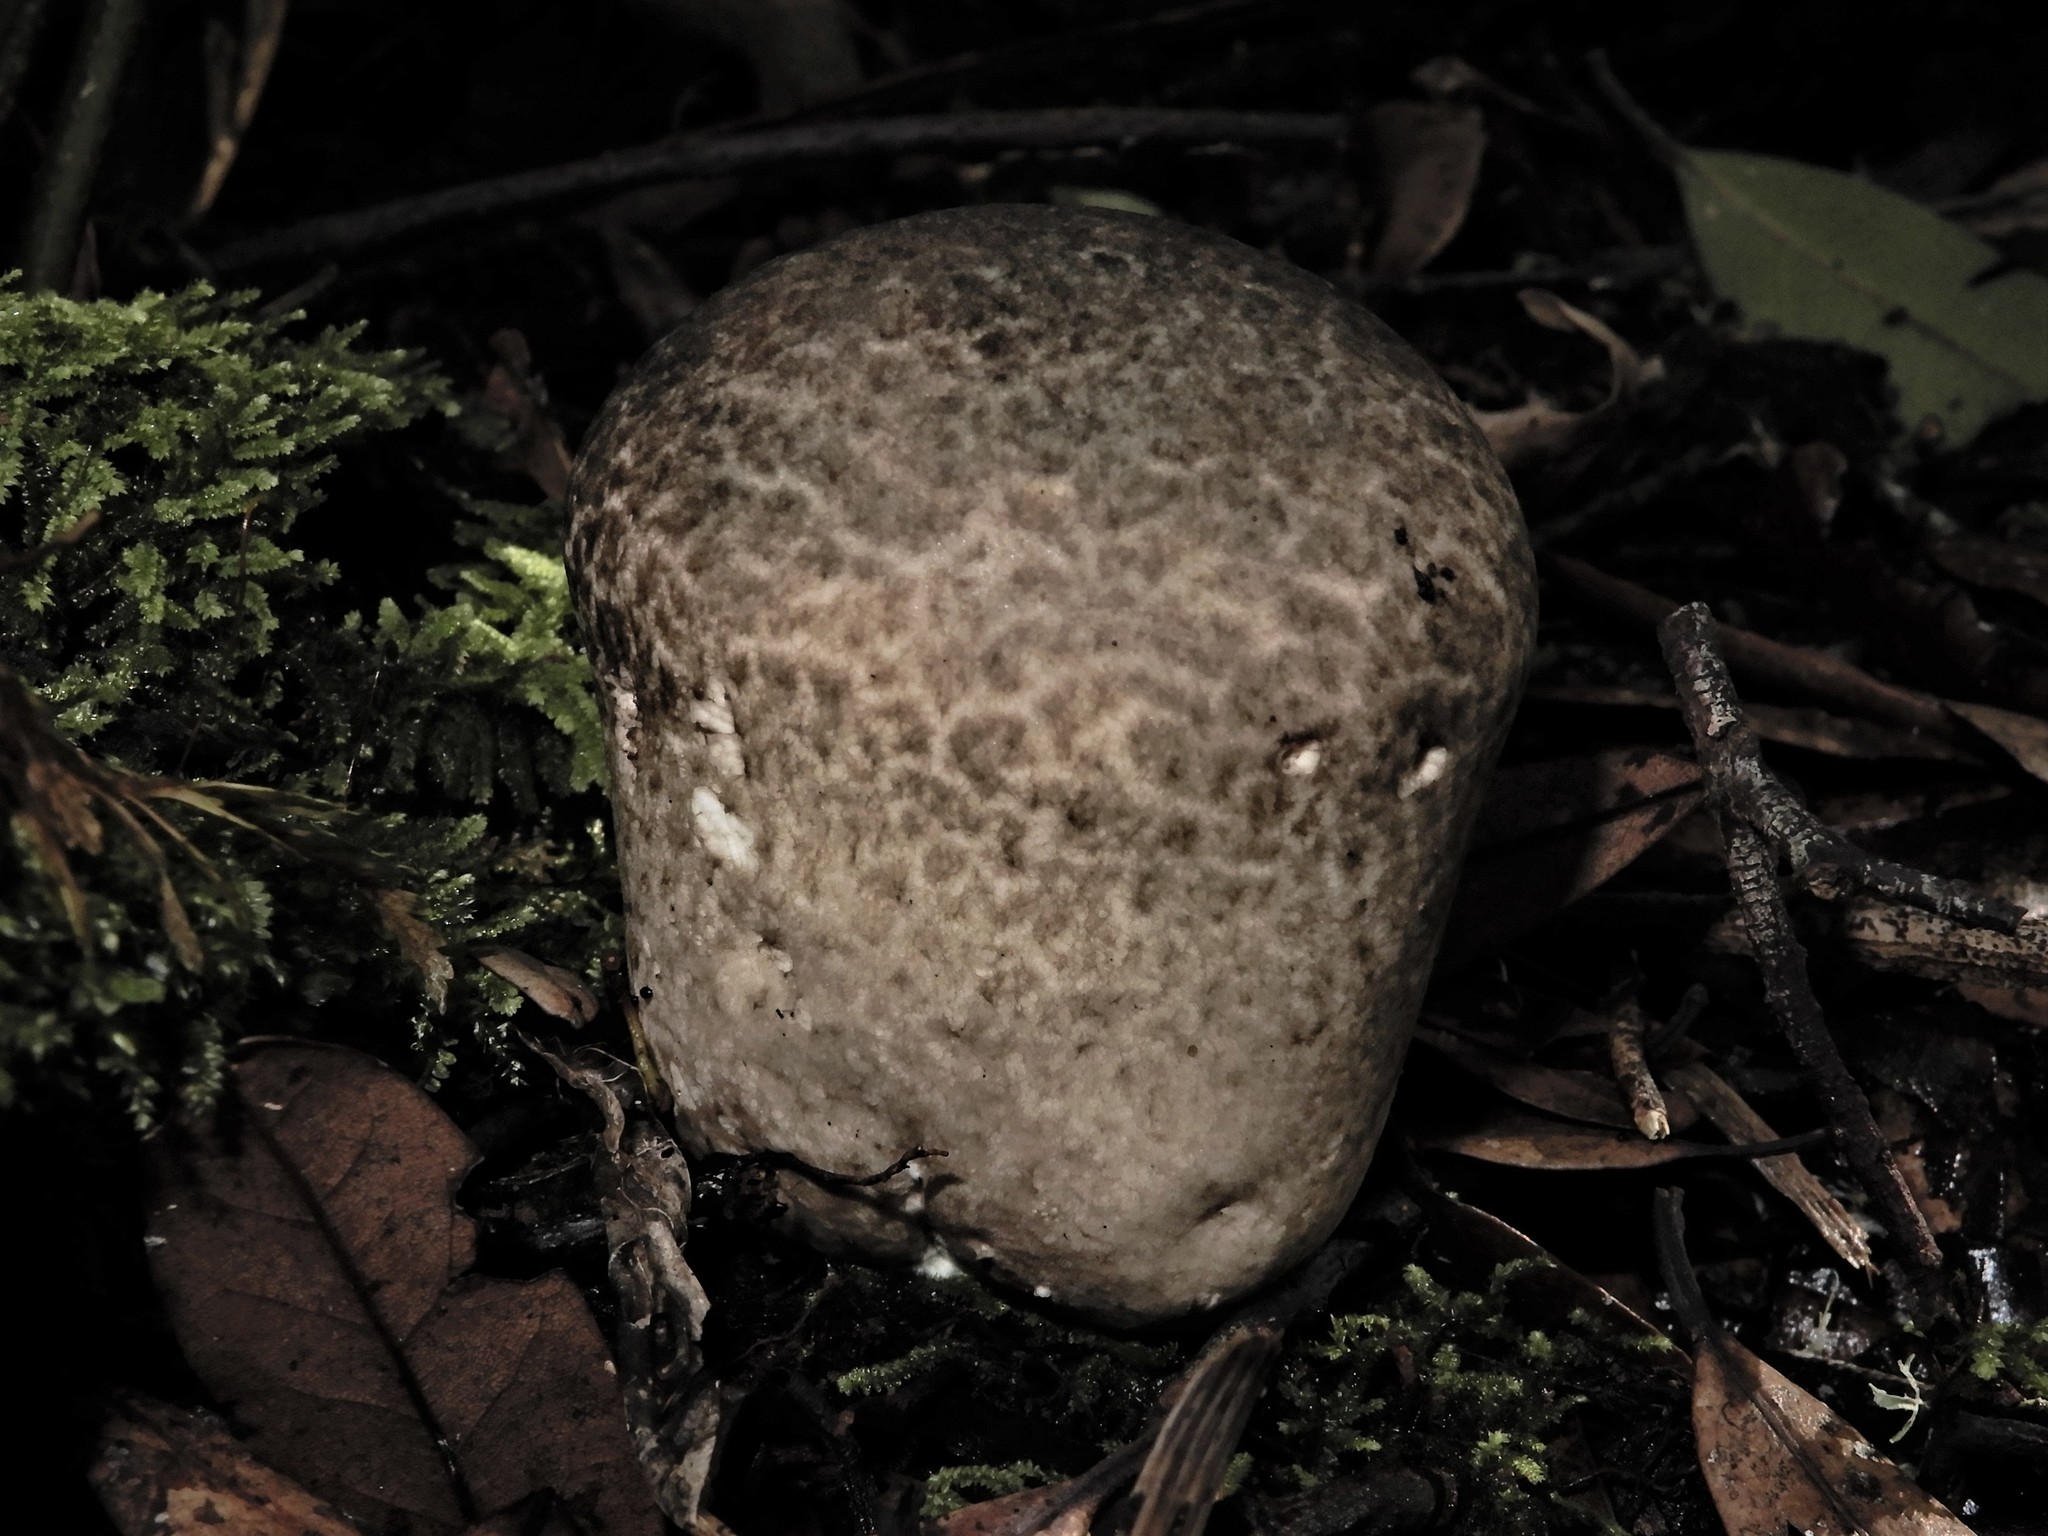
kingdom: Fungi
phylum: Basidiomycota
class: Agaricomycetes
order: Agaricales
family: Lycoperdaceae
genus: Calvatia
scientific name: Calvatia
